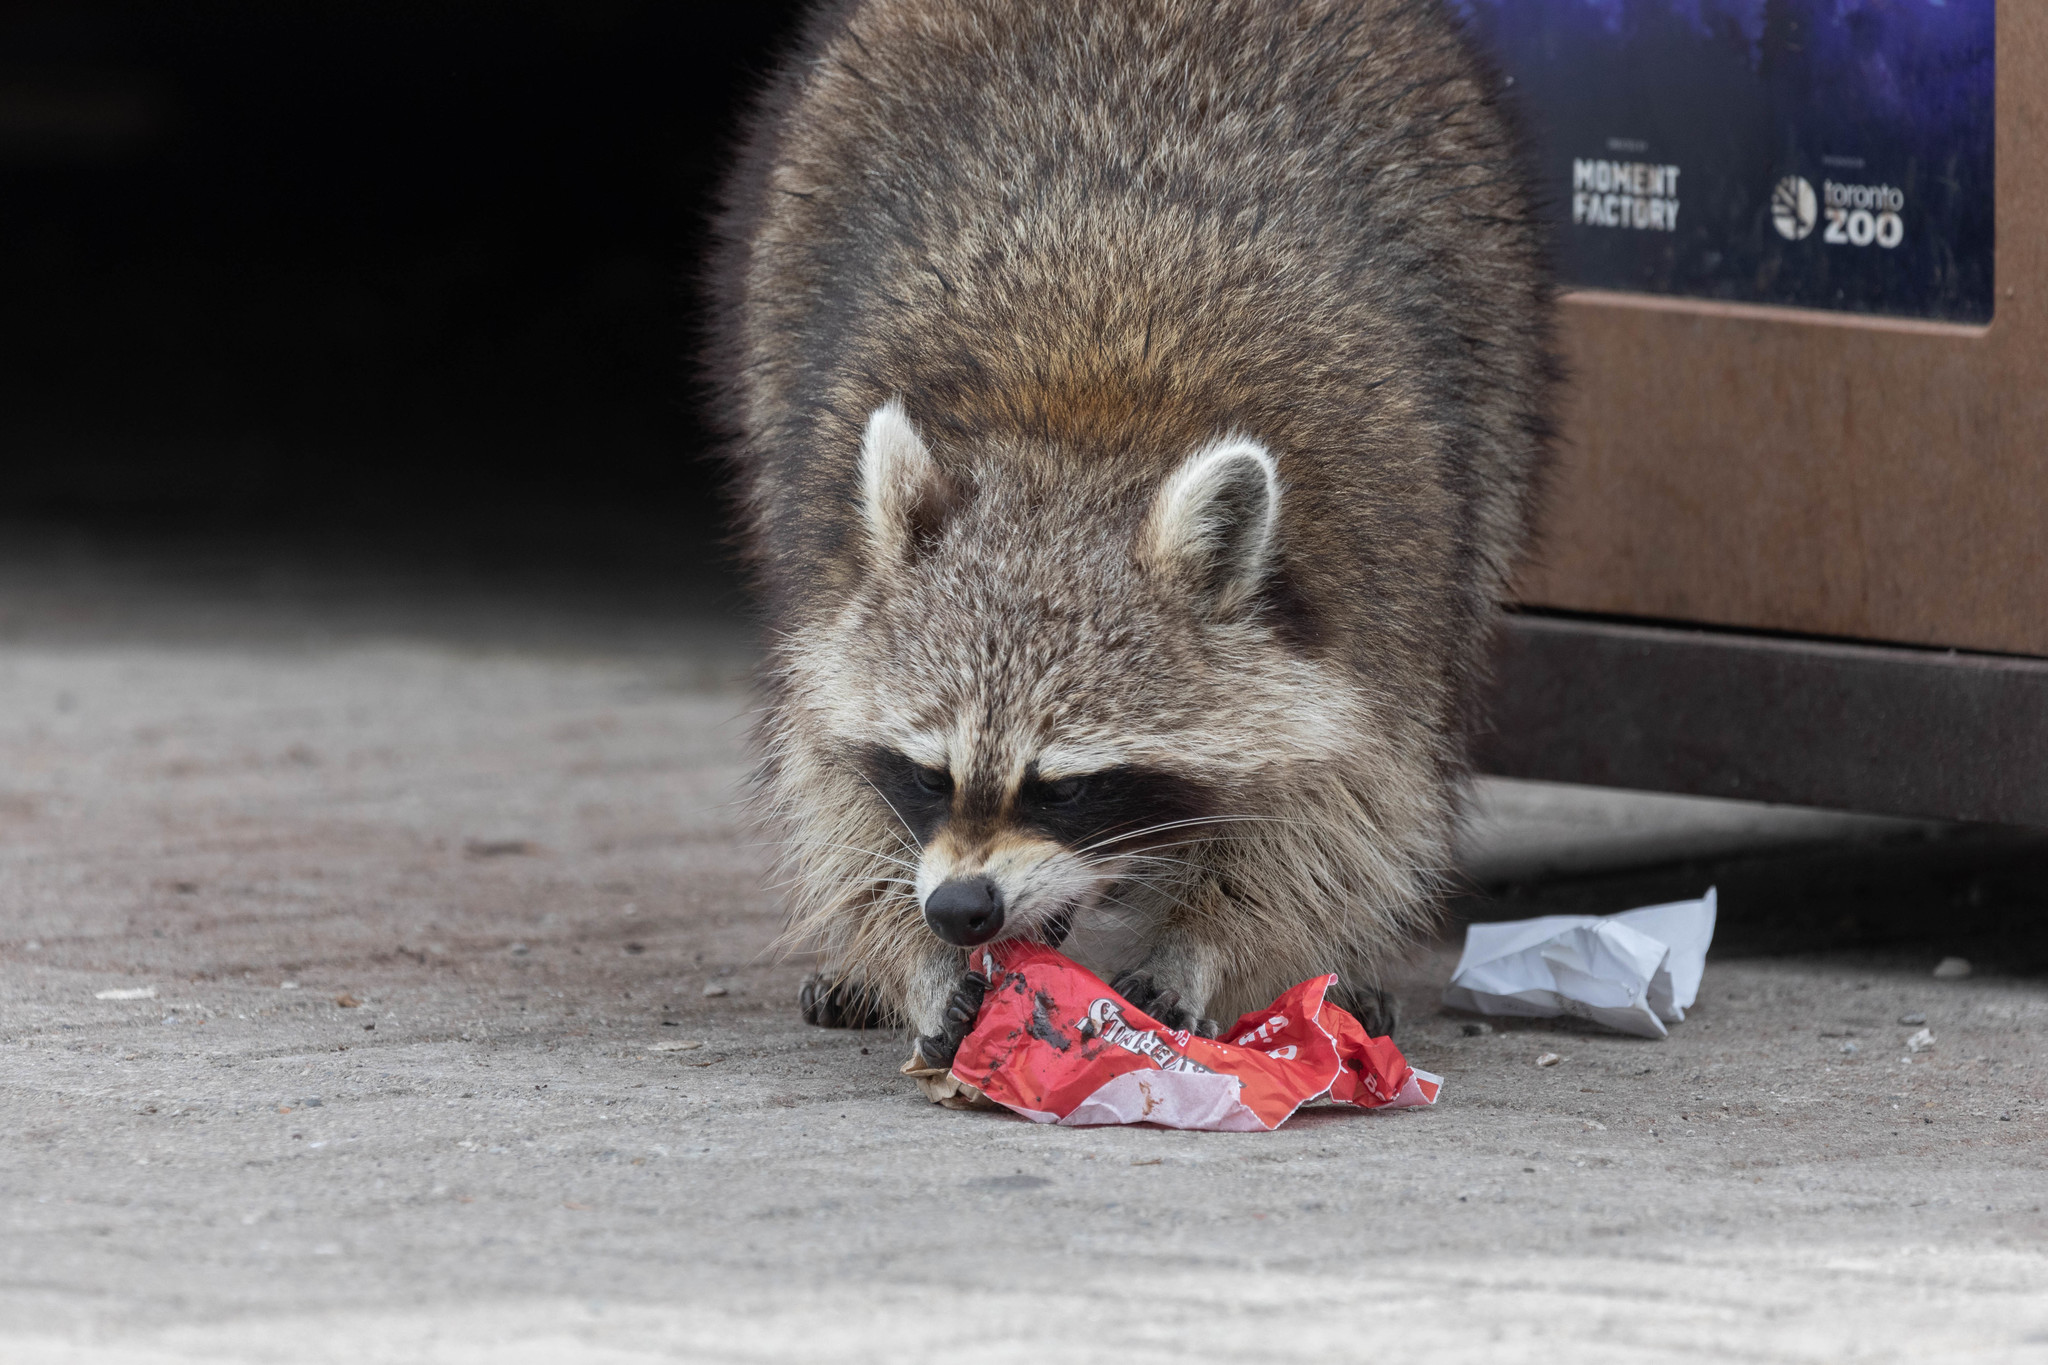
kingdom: Animalia
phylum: Chordata
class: Mammalia
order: Carnivora
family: Procyonidae
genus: Procyon
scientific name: Procyon lotor
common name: Raccoon
